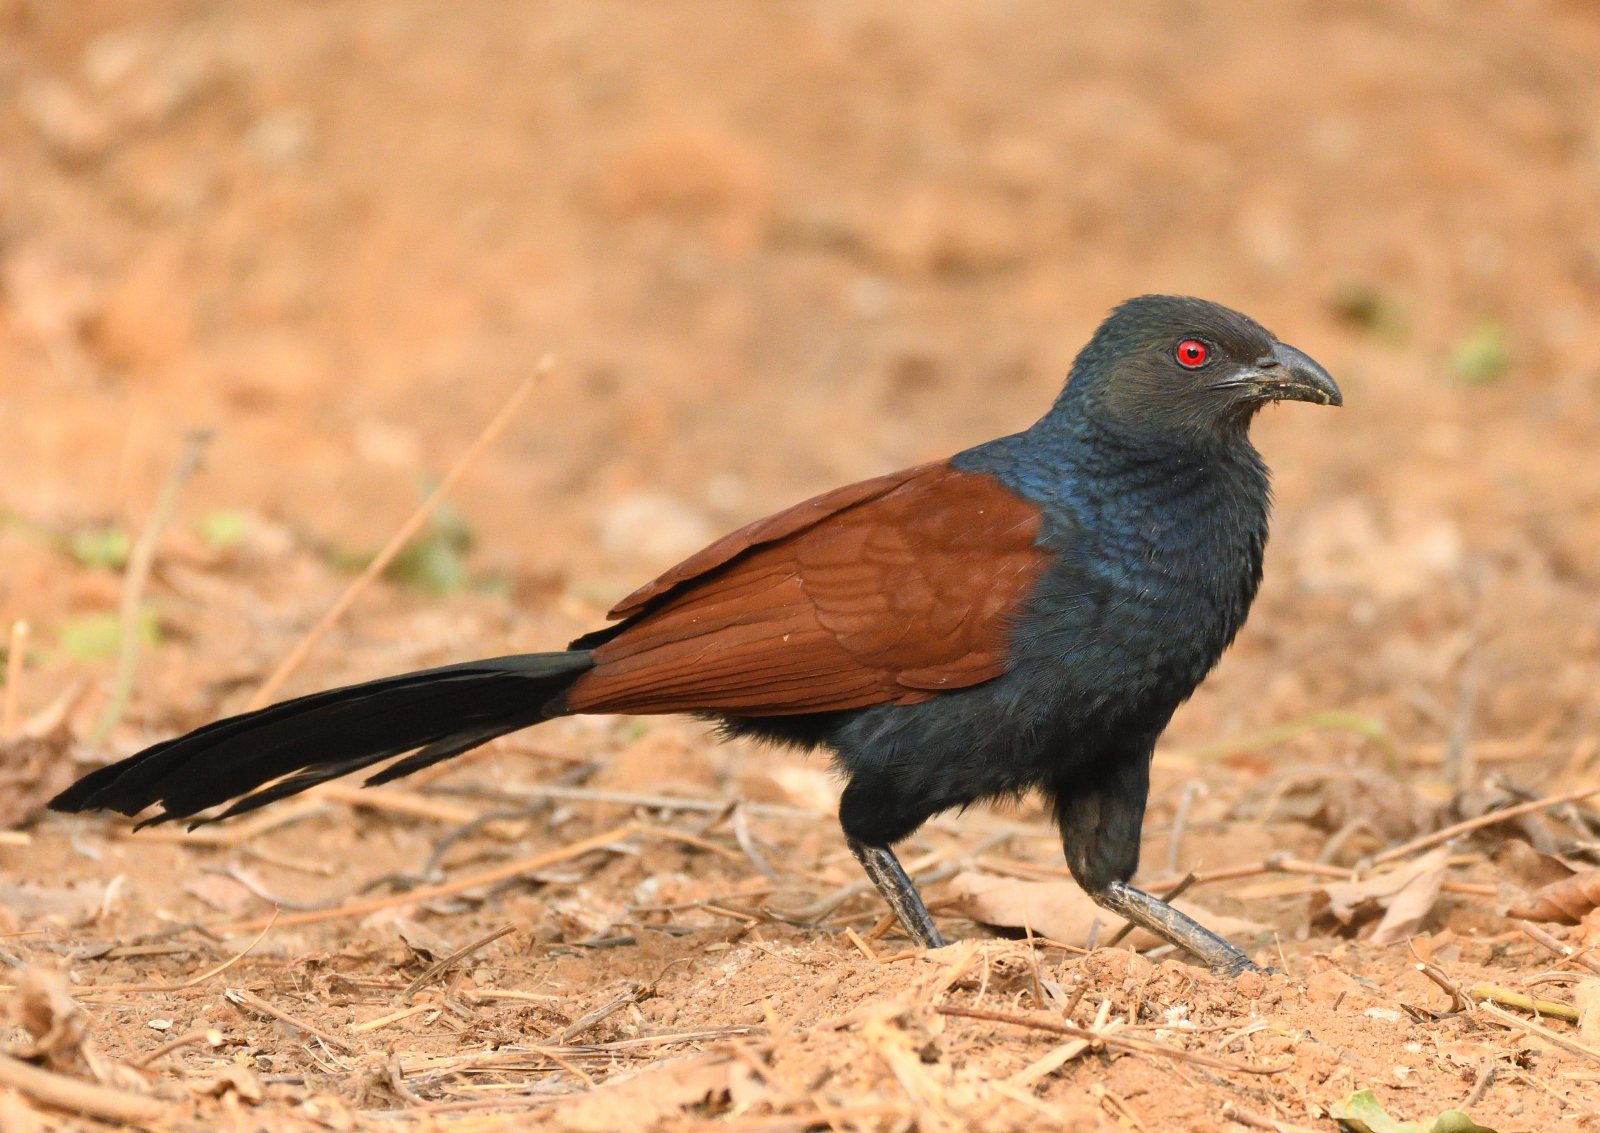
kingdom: Animalia
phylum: Chordata
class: Aves
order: Cuculiformes
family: Cuculidae
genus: Centropus
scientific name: Centropus sinensis
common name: Greater coucal
